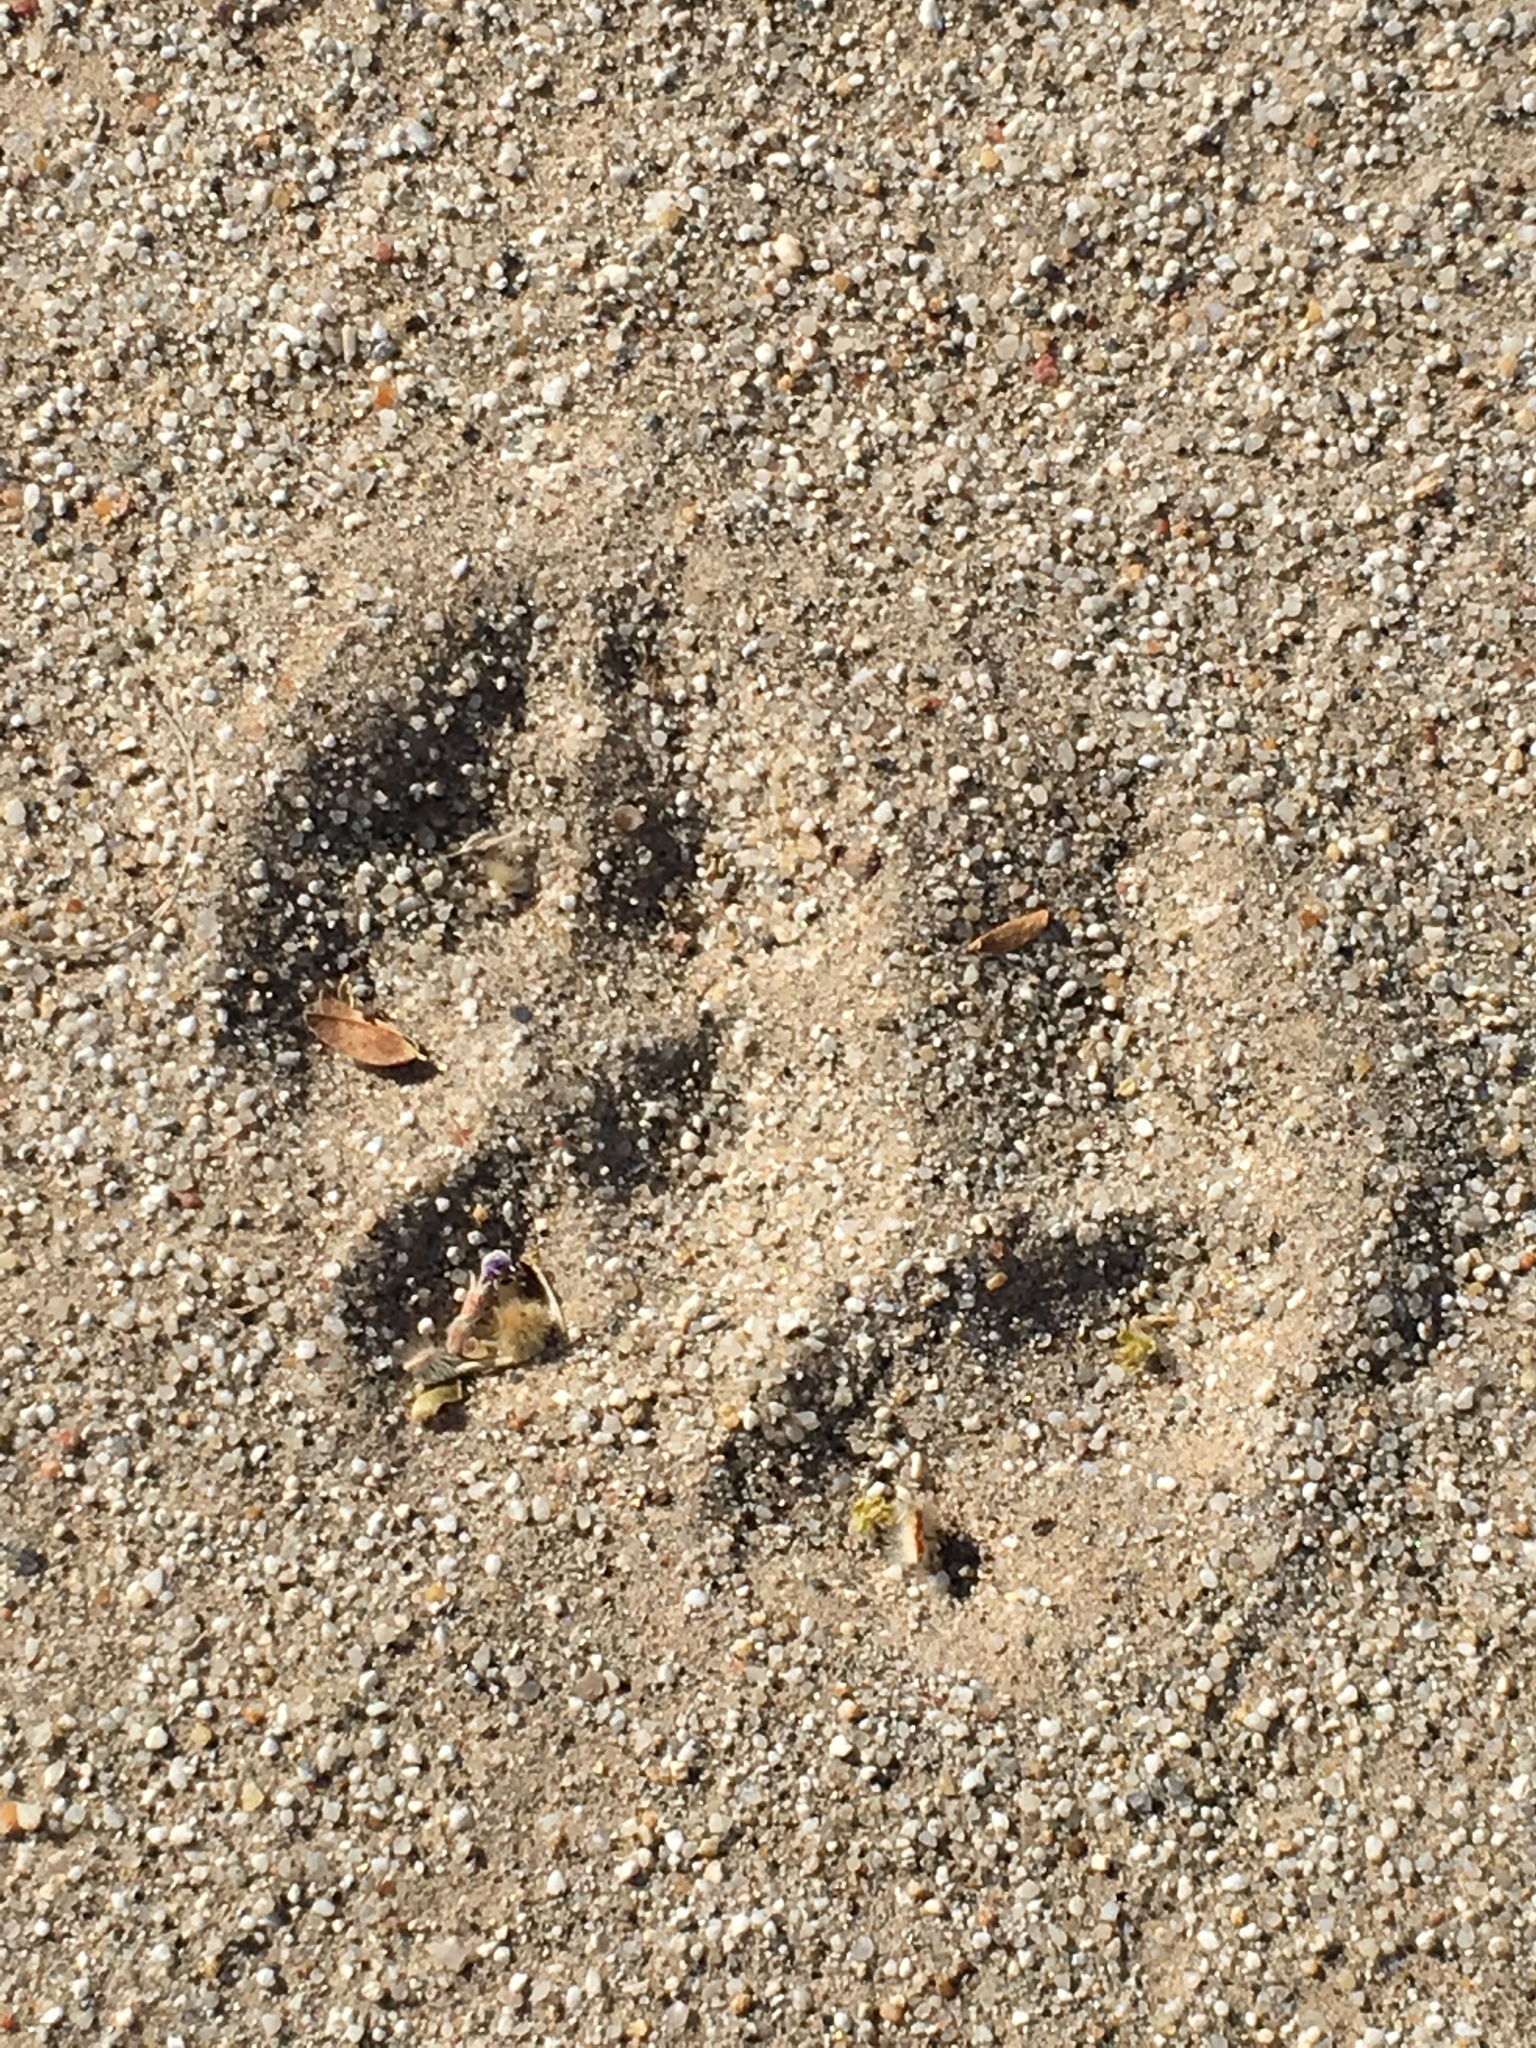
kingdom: Animalia
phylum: Chordata
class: Mammalia
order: Carnivora
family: Canidae
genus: Canis
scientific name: Canis latrans
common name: Coyote
